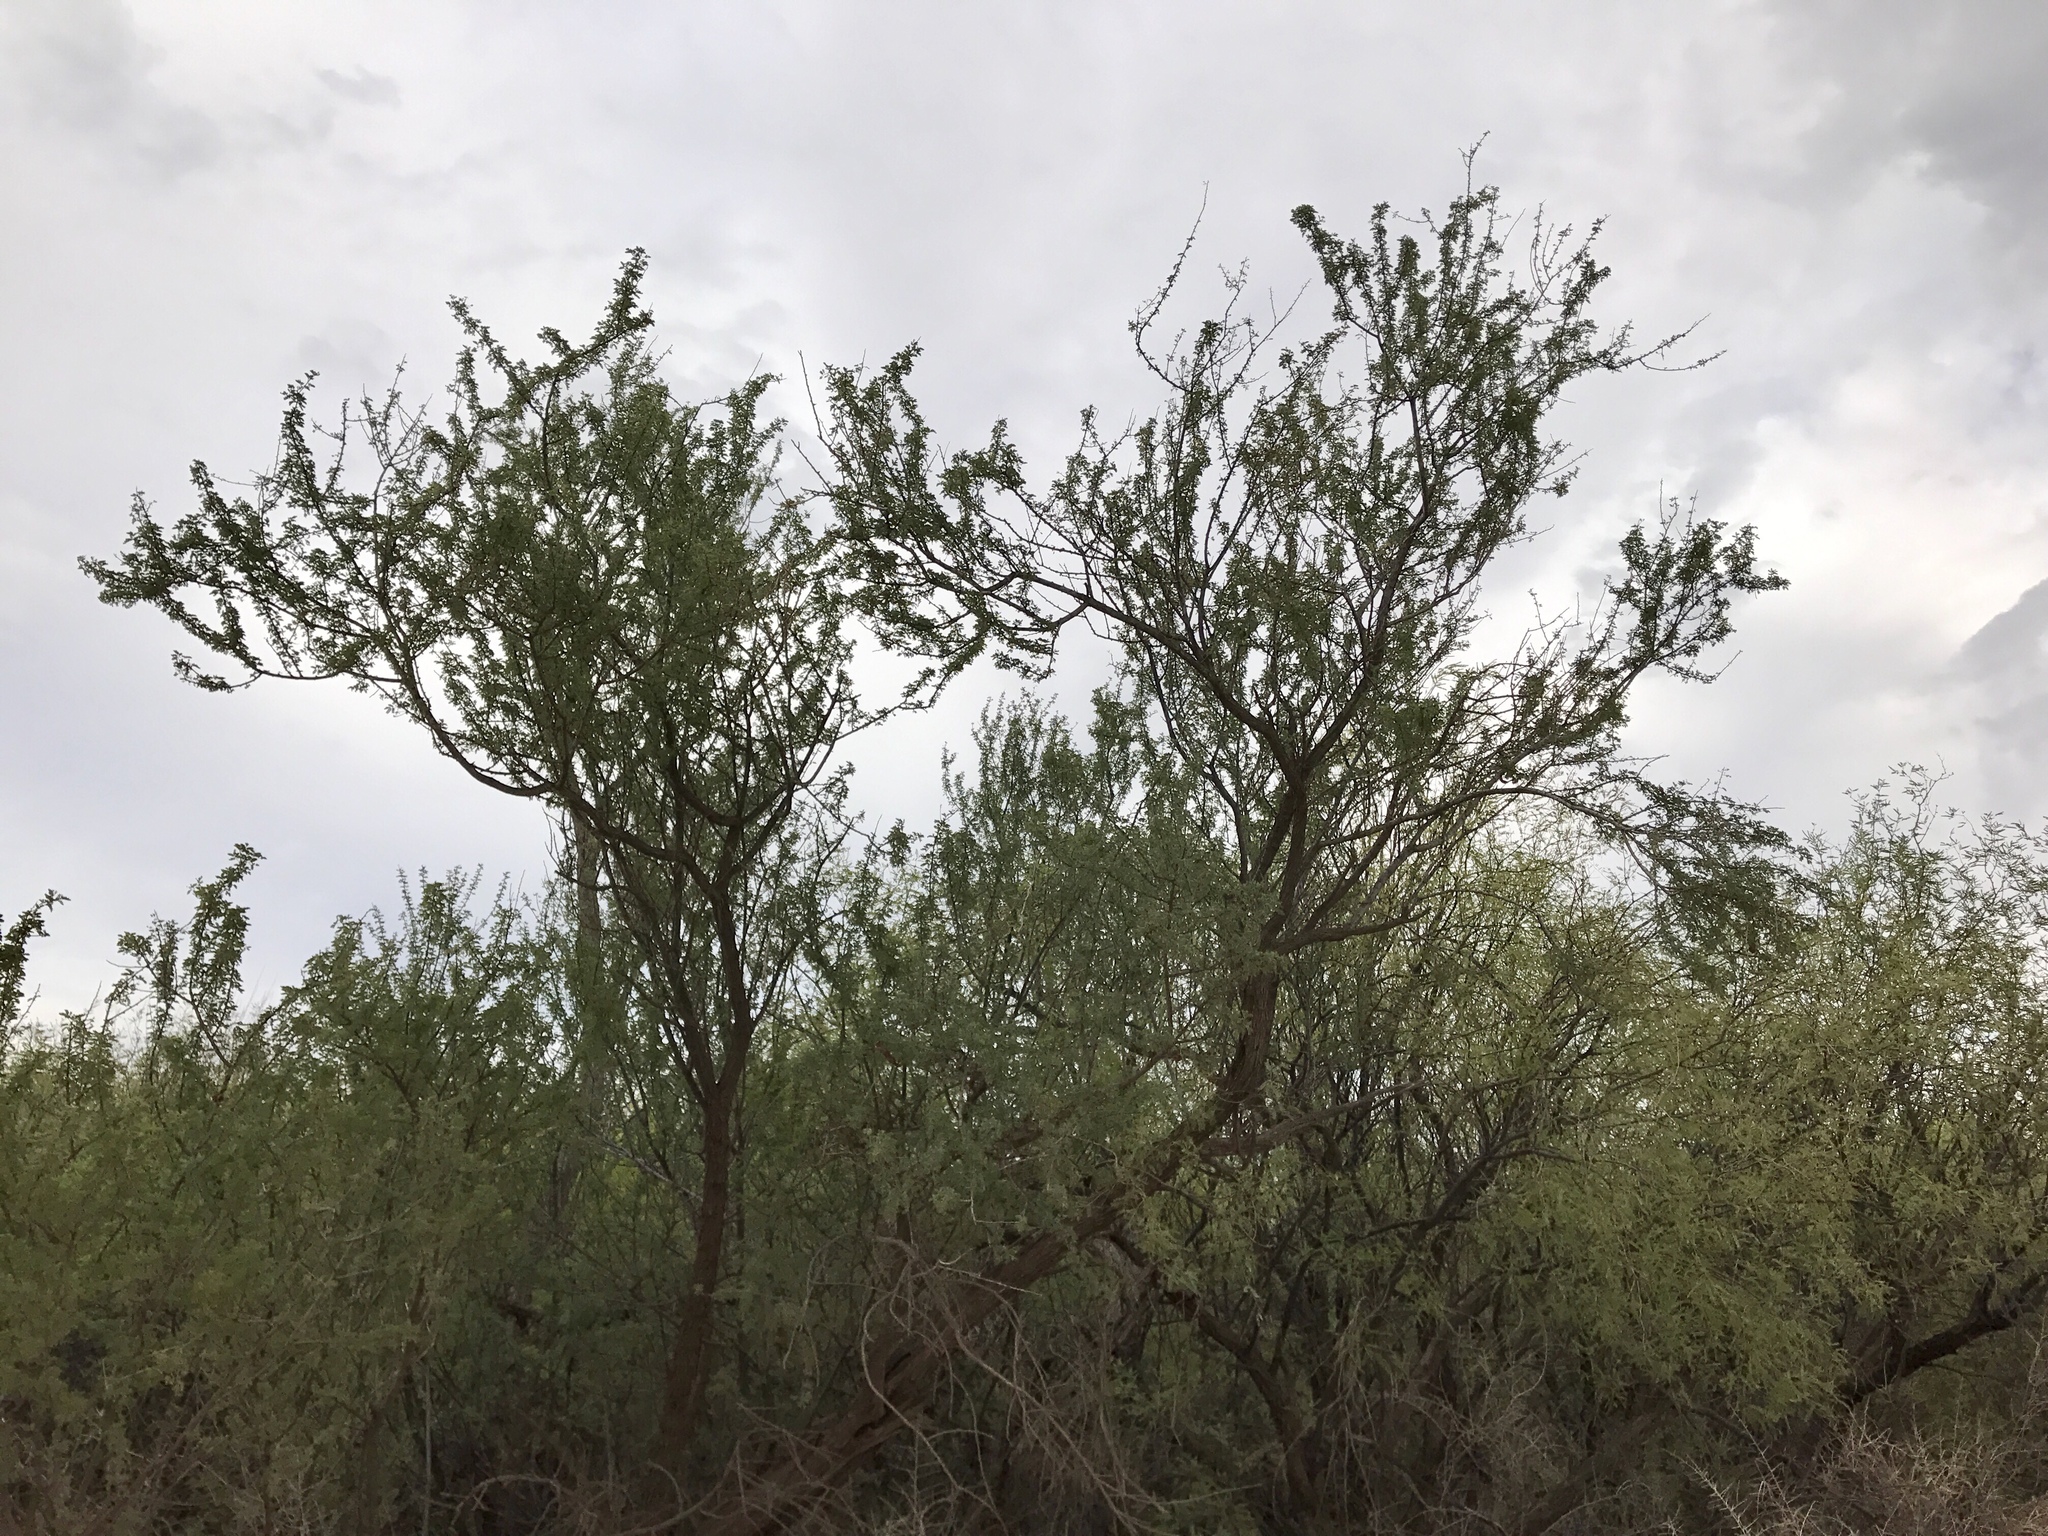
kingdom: Plantae
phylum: Tracheophyta
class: Magnoliopsida
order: Fabales
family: Fabaceae
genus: Olneya
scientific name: Olneya tesota
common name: Desert ironwood
